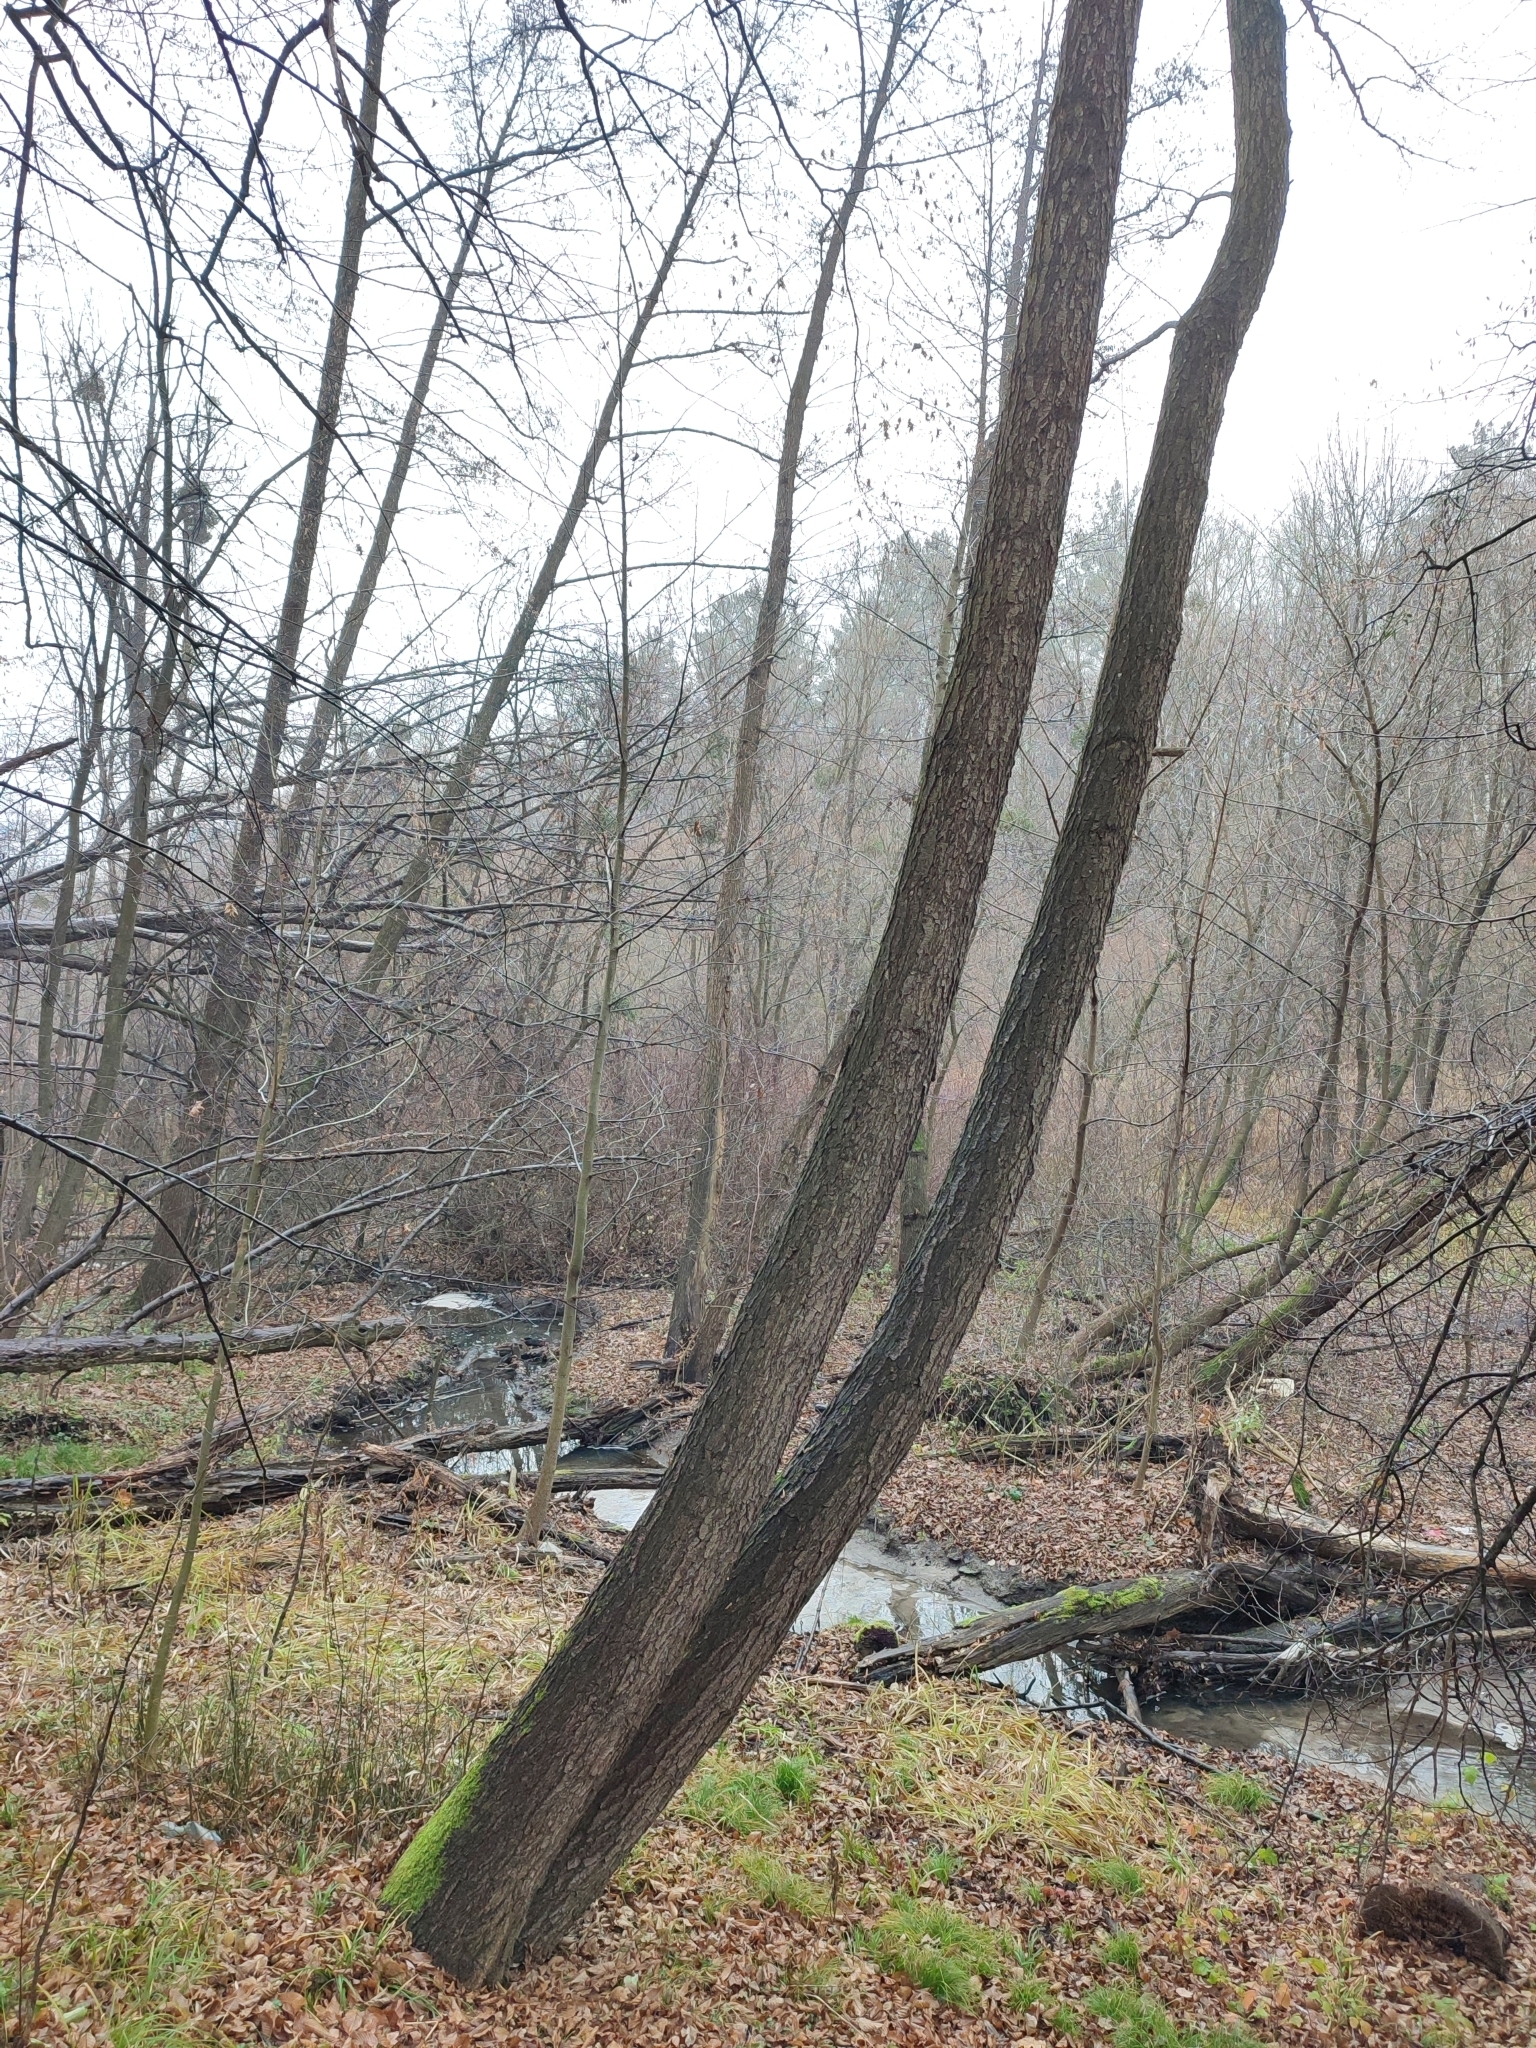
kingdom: Plantae
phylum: Tracheophyta
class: Magnoliopsida
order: Fagales
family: Betulaceae
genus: Alnus
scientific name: Alnus glutinosa
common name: Black alder
